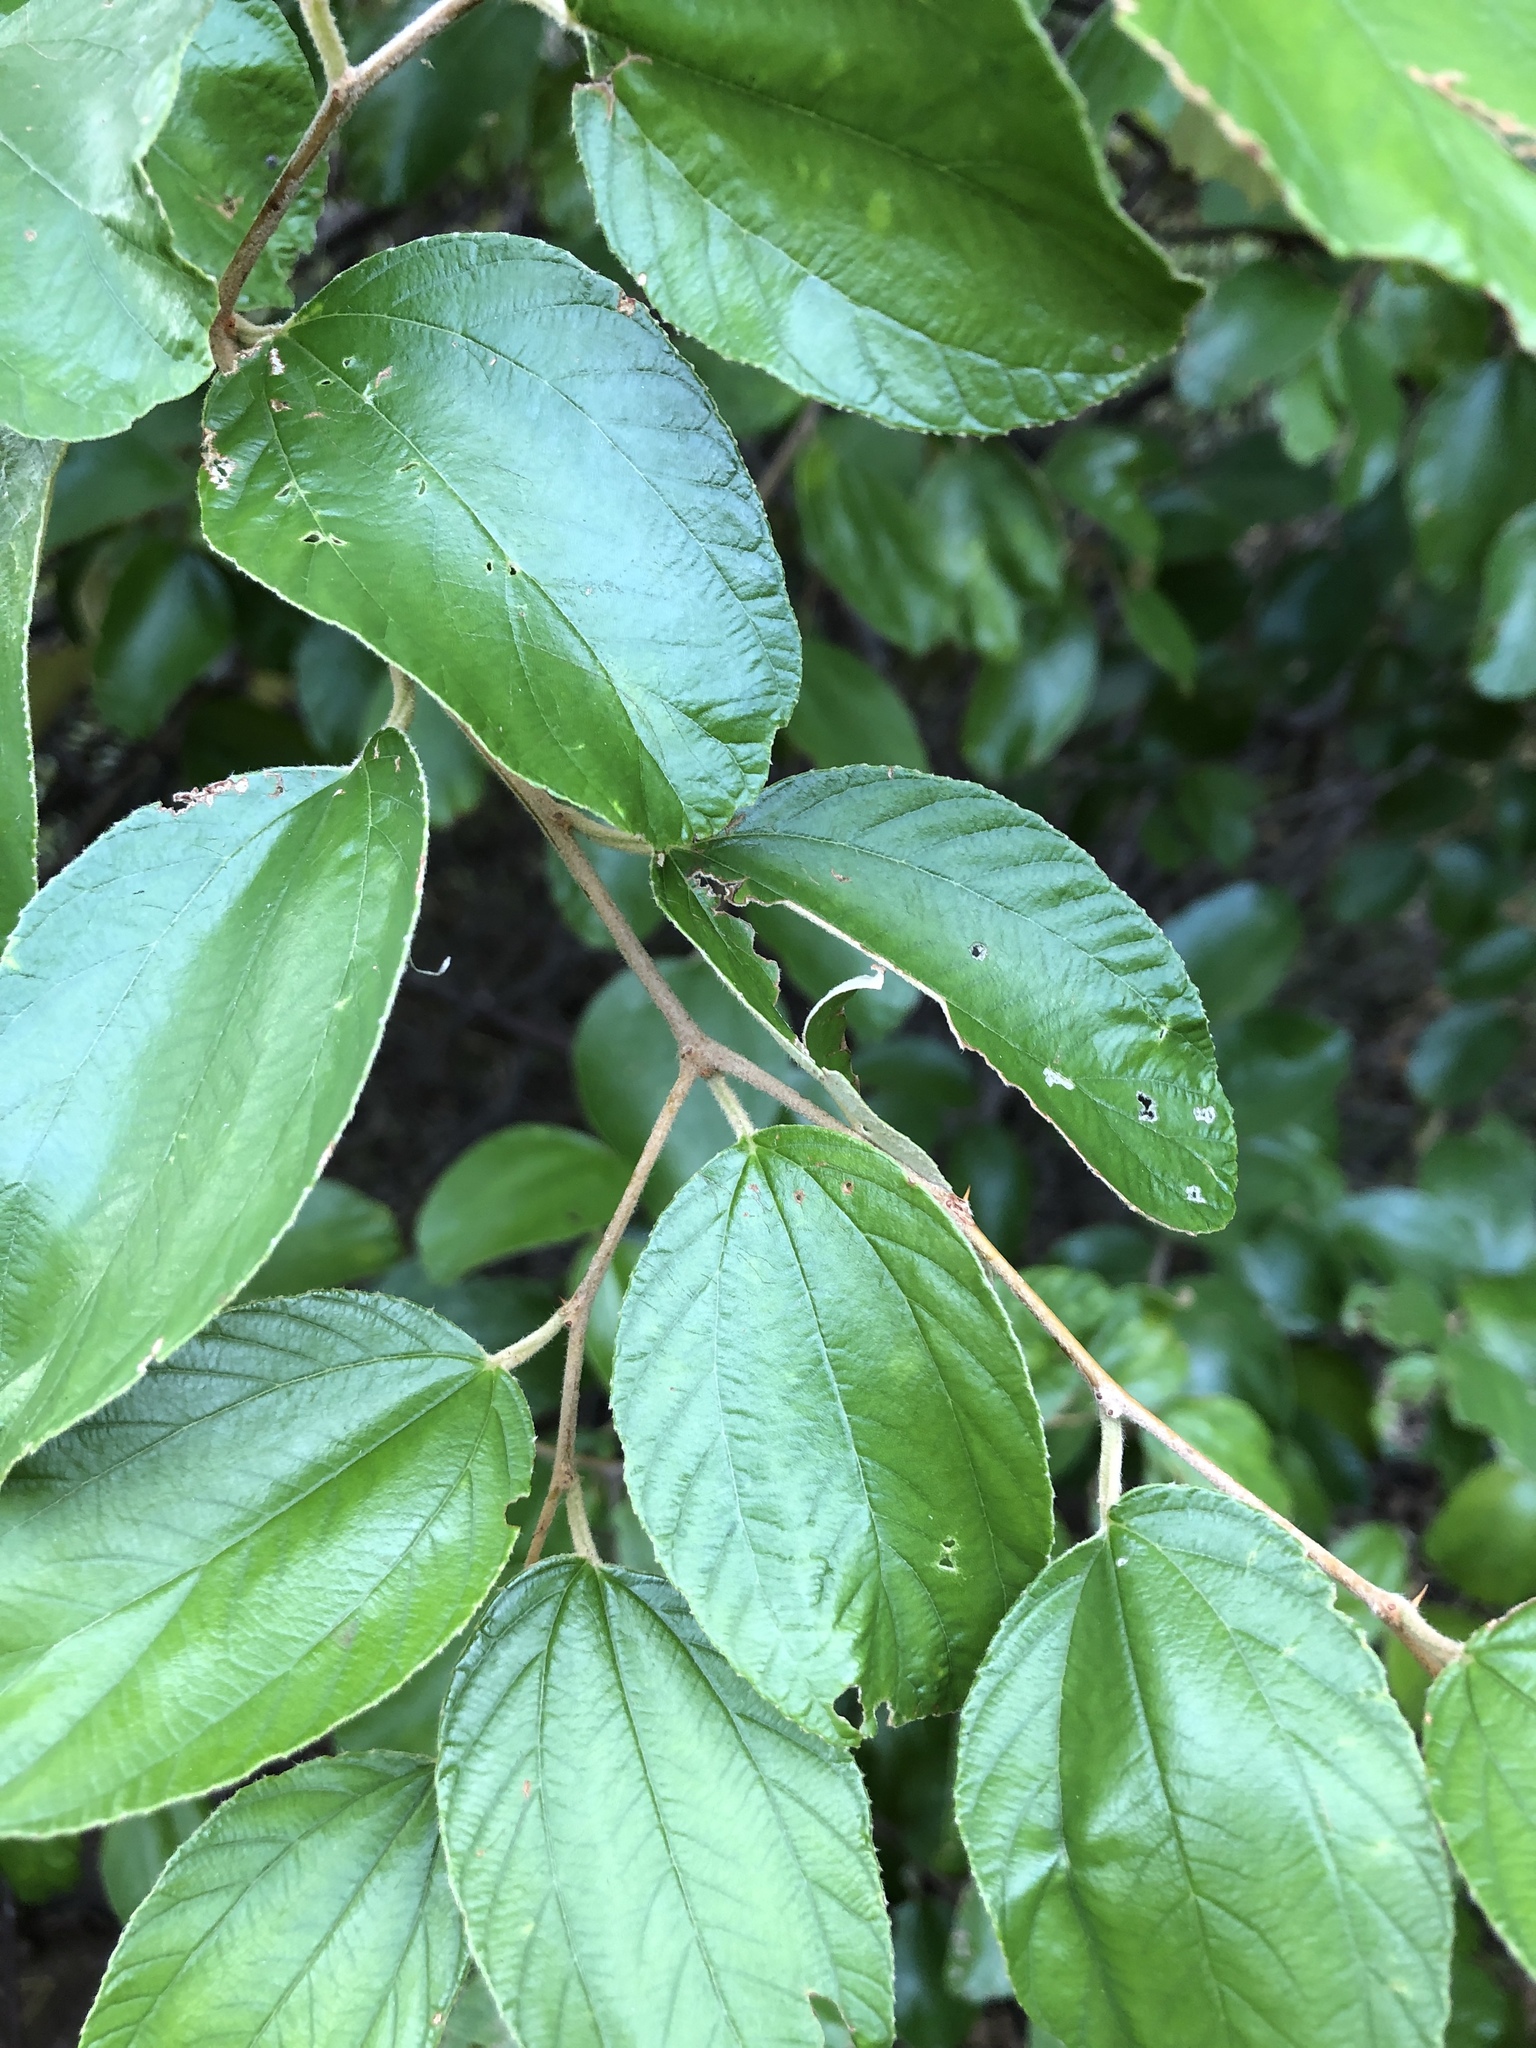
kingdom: Plantae
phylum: Tracheophyta
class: Magnoliopsida
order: Rosales
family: Rhamnaceae
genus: Ziziphus
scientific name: Ziziphus mauritiana
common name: Indian jujube
